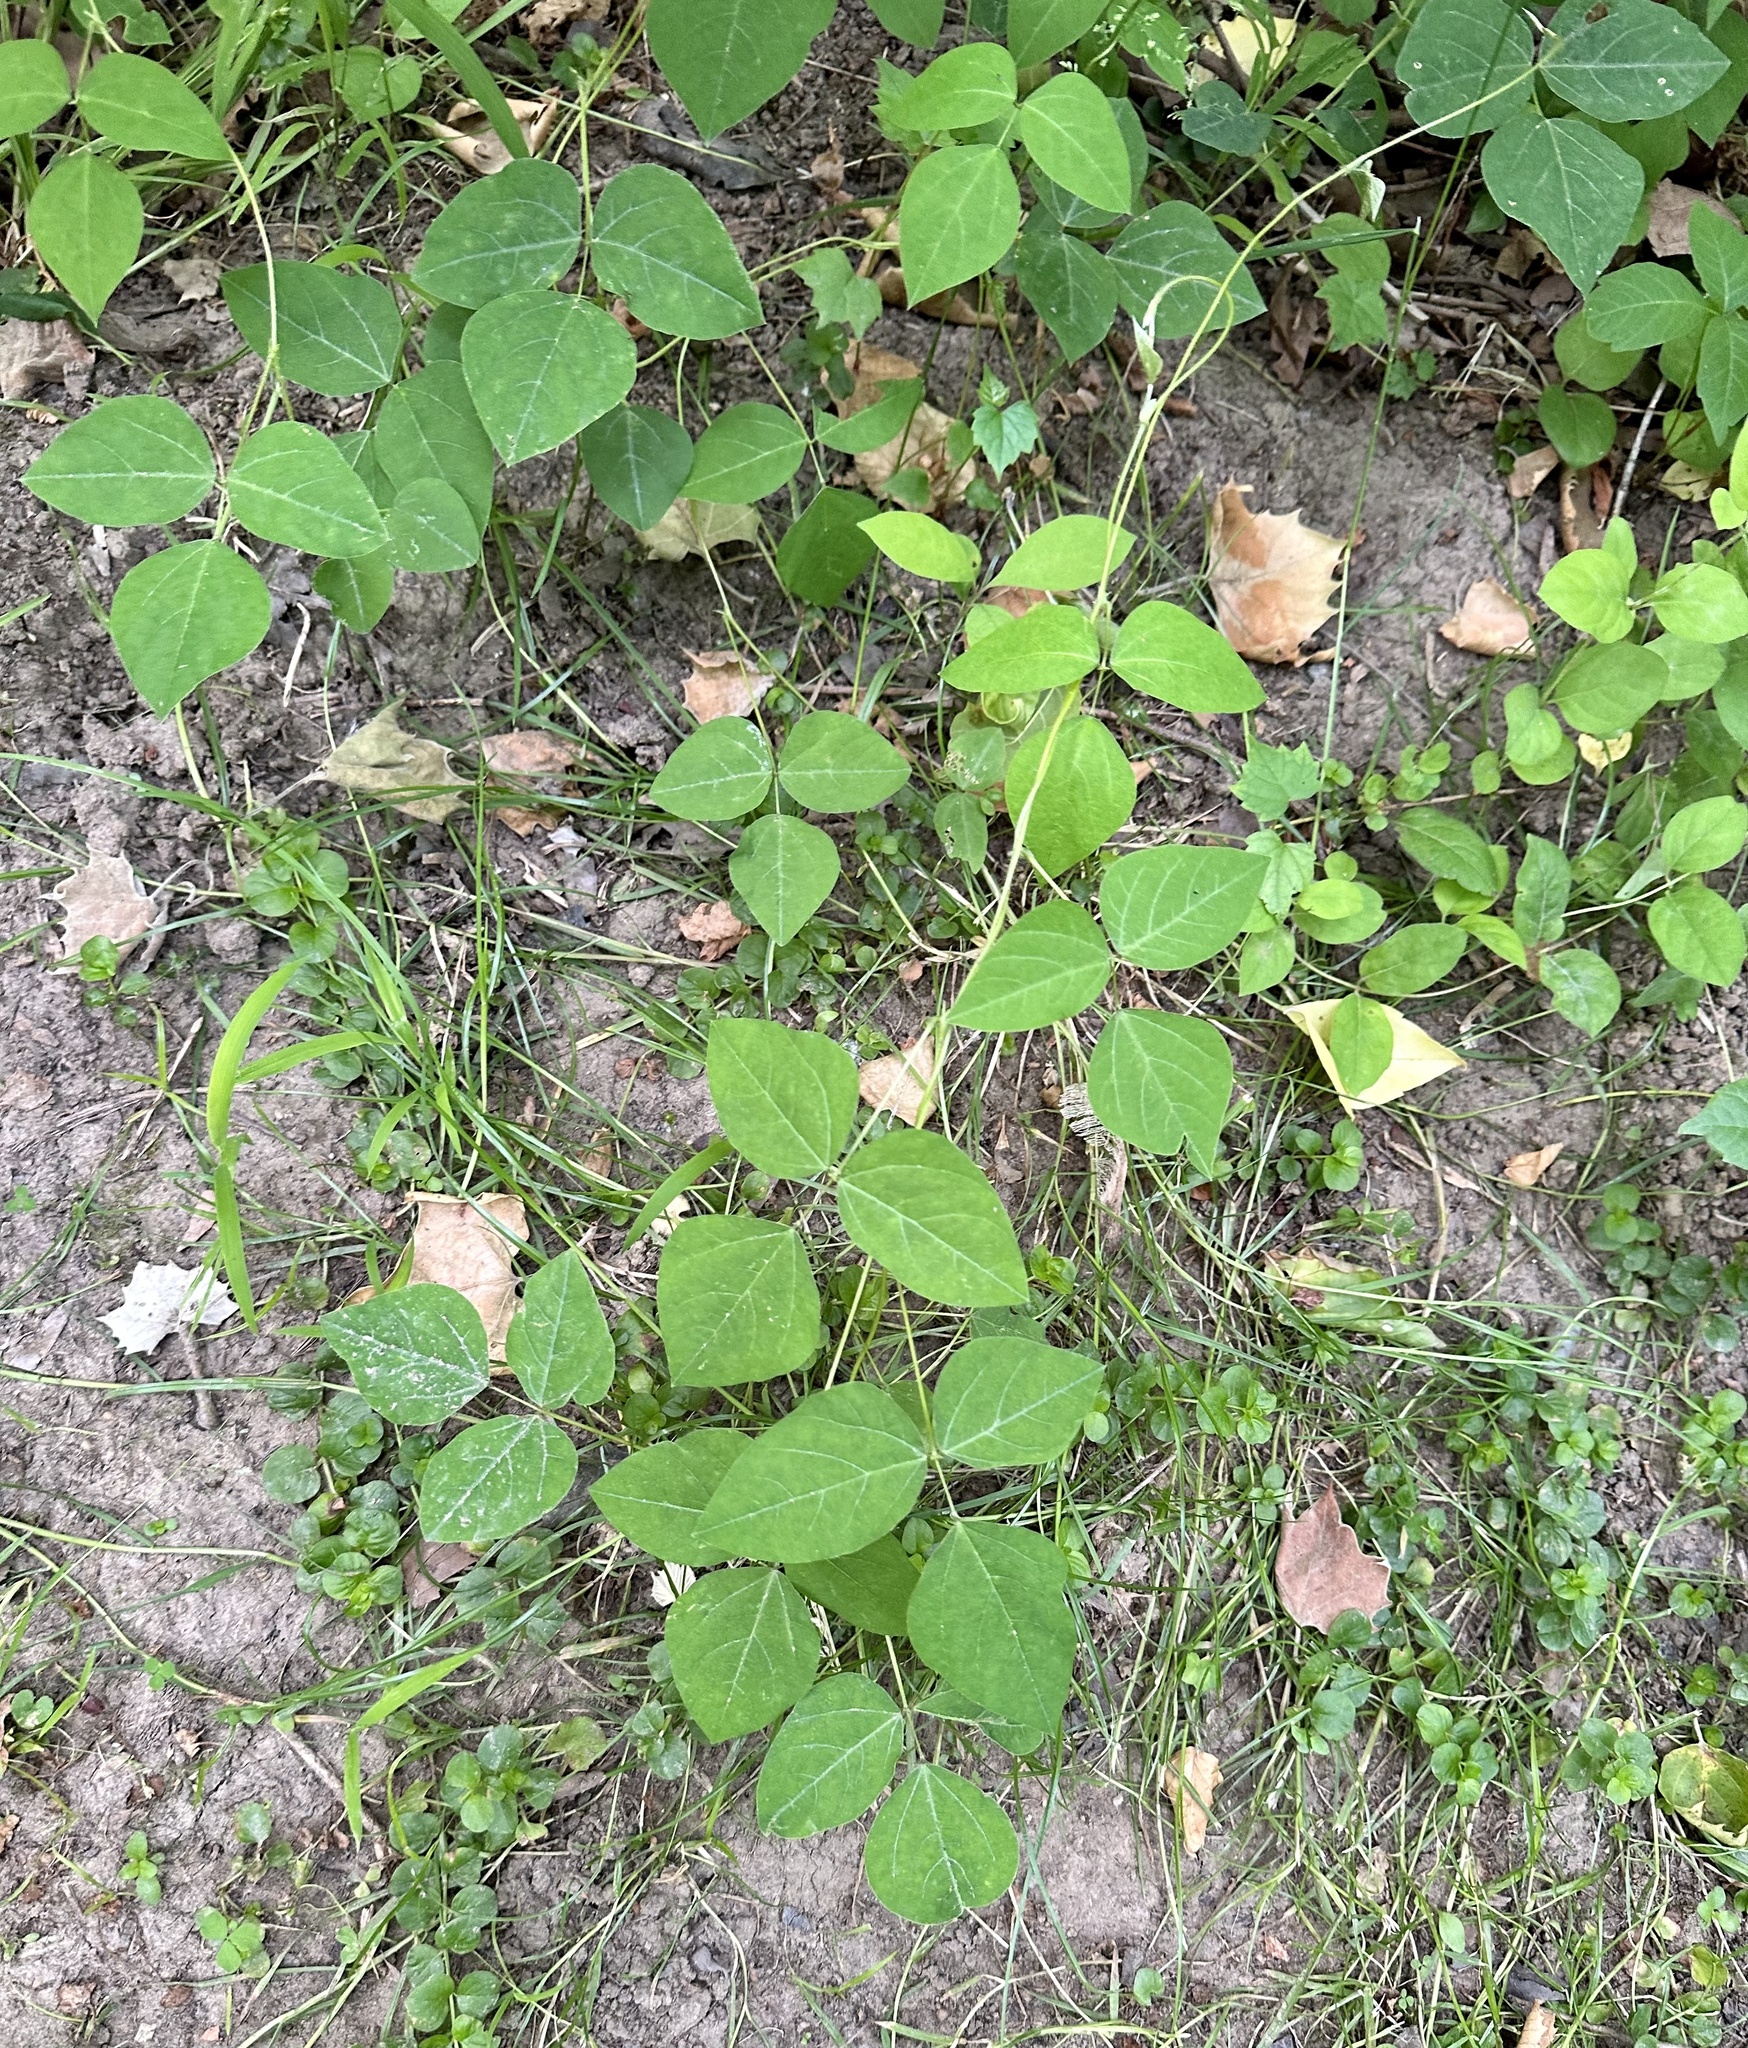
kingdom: Plantae
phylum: Tracheophyta
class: Magnoliopsida
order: Fabales
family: Fabaceae
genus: Amphicarpaea
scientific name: Amphicarpaea bracteata
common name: American hog peanut
